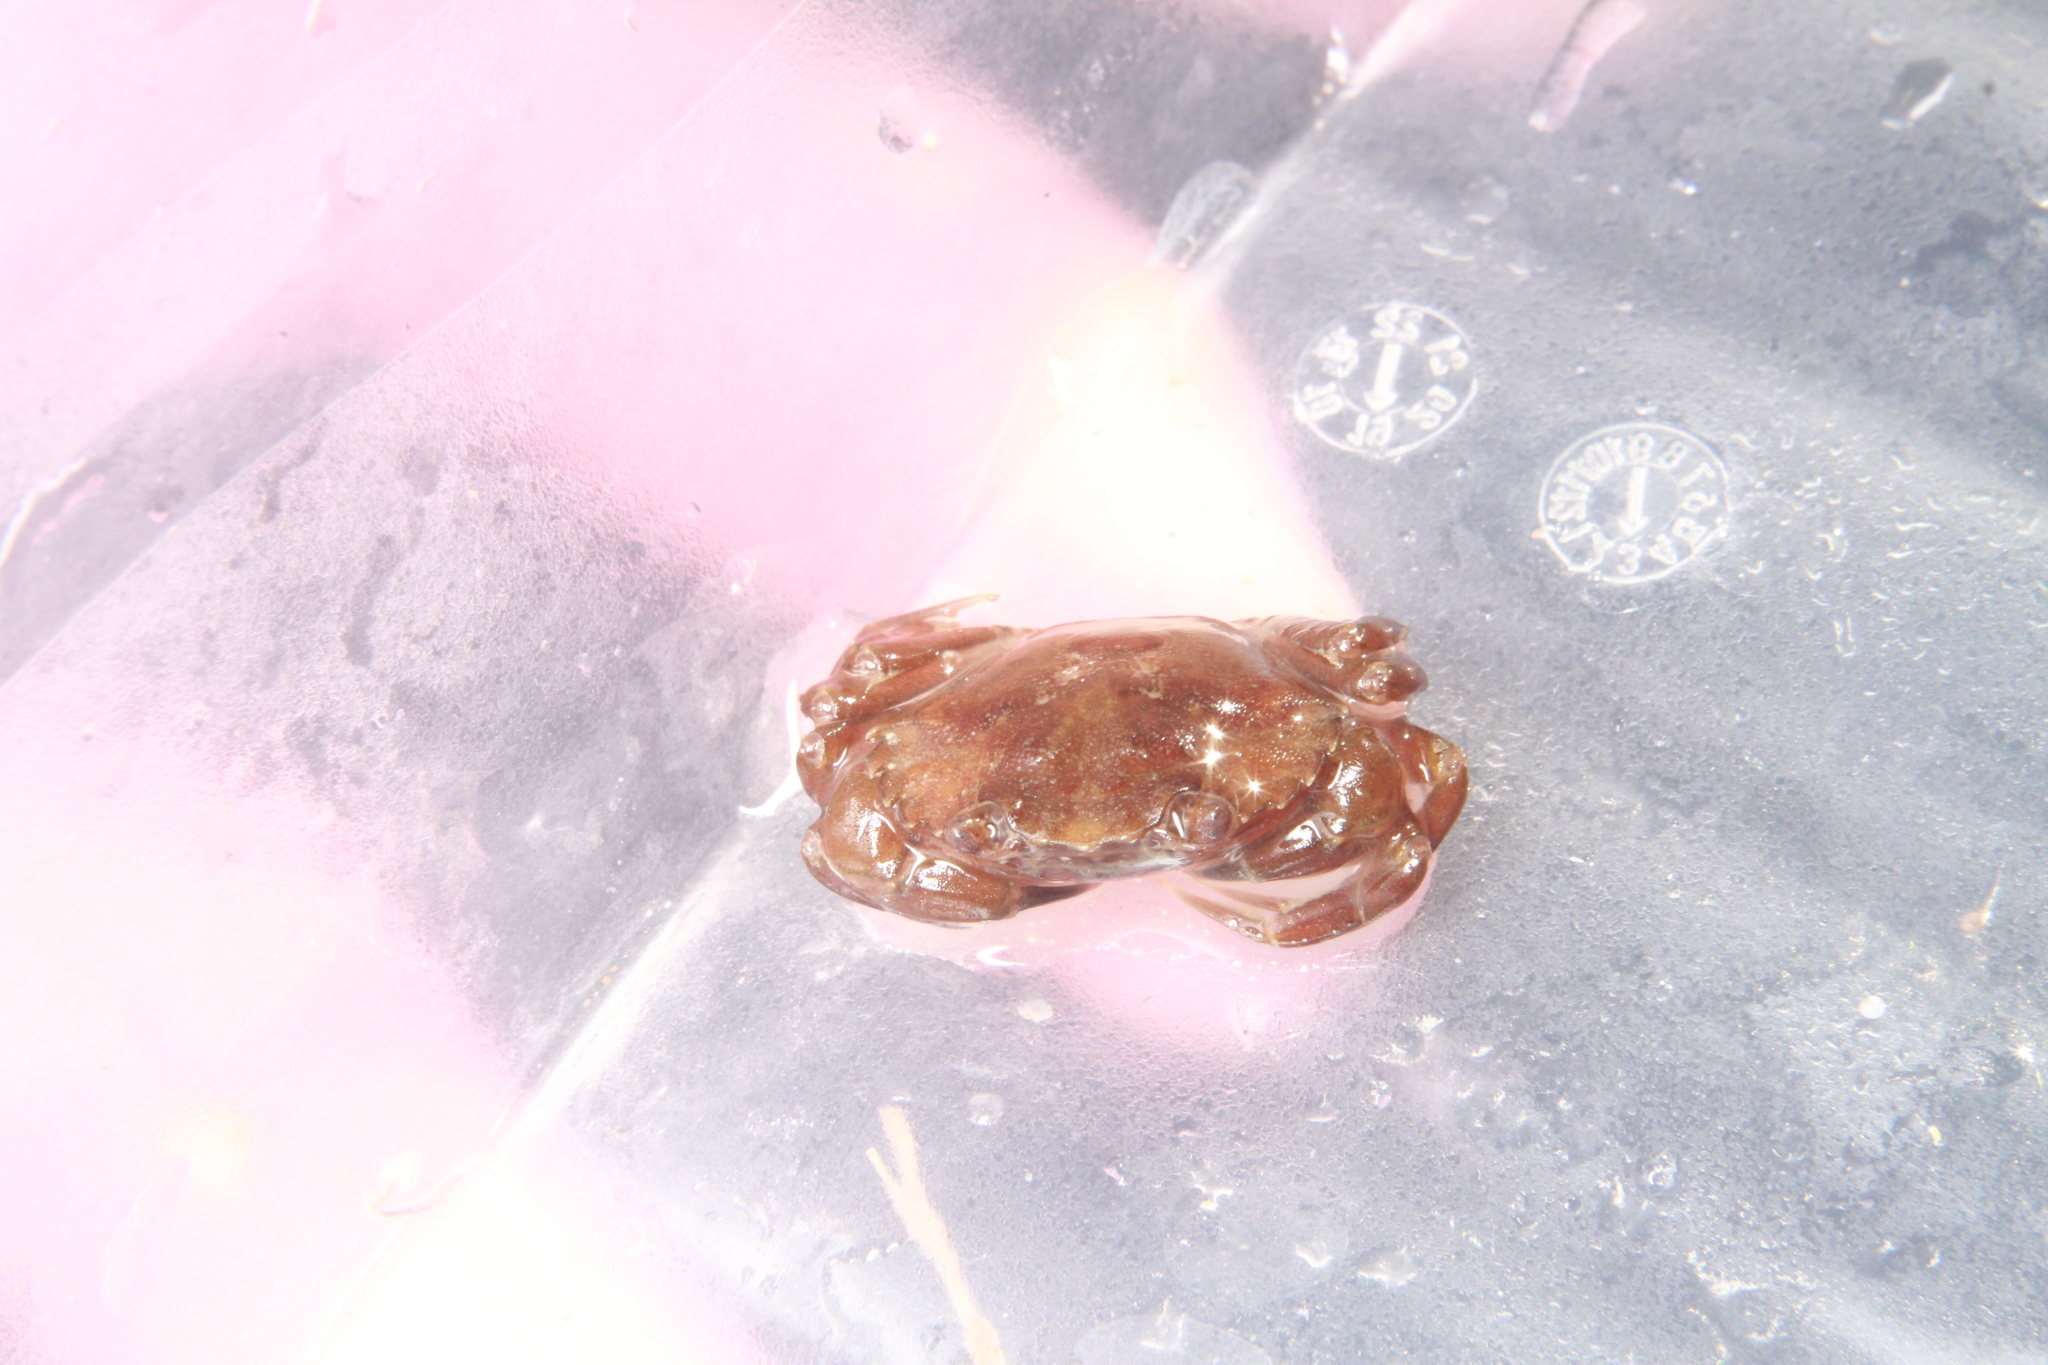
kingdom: Animalia
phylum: Arthropoda
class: Malacostraca
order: Decapoda
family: Carcinidae
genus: Carcinus
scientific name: Carcinus maenas
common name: European green crab
